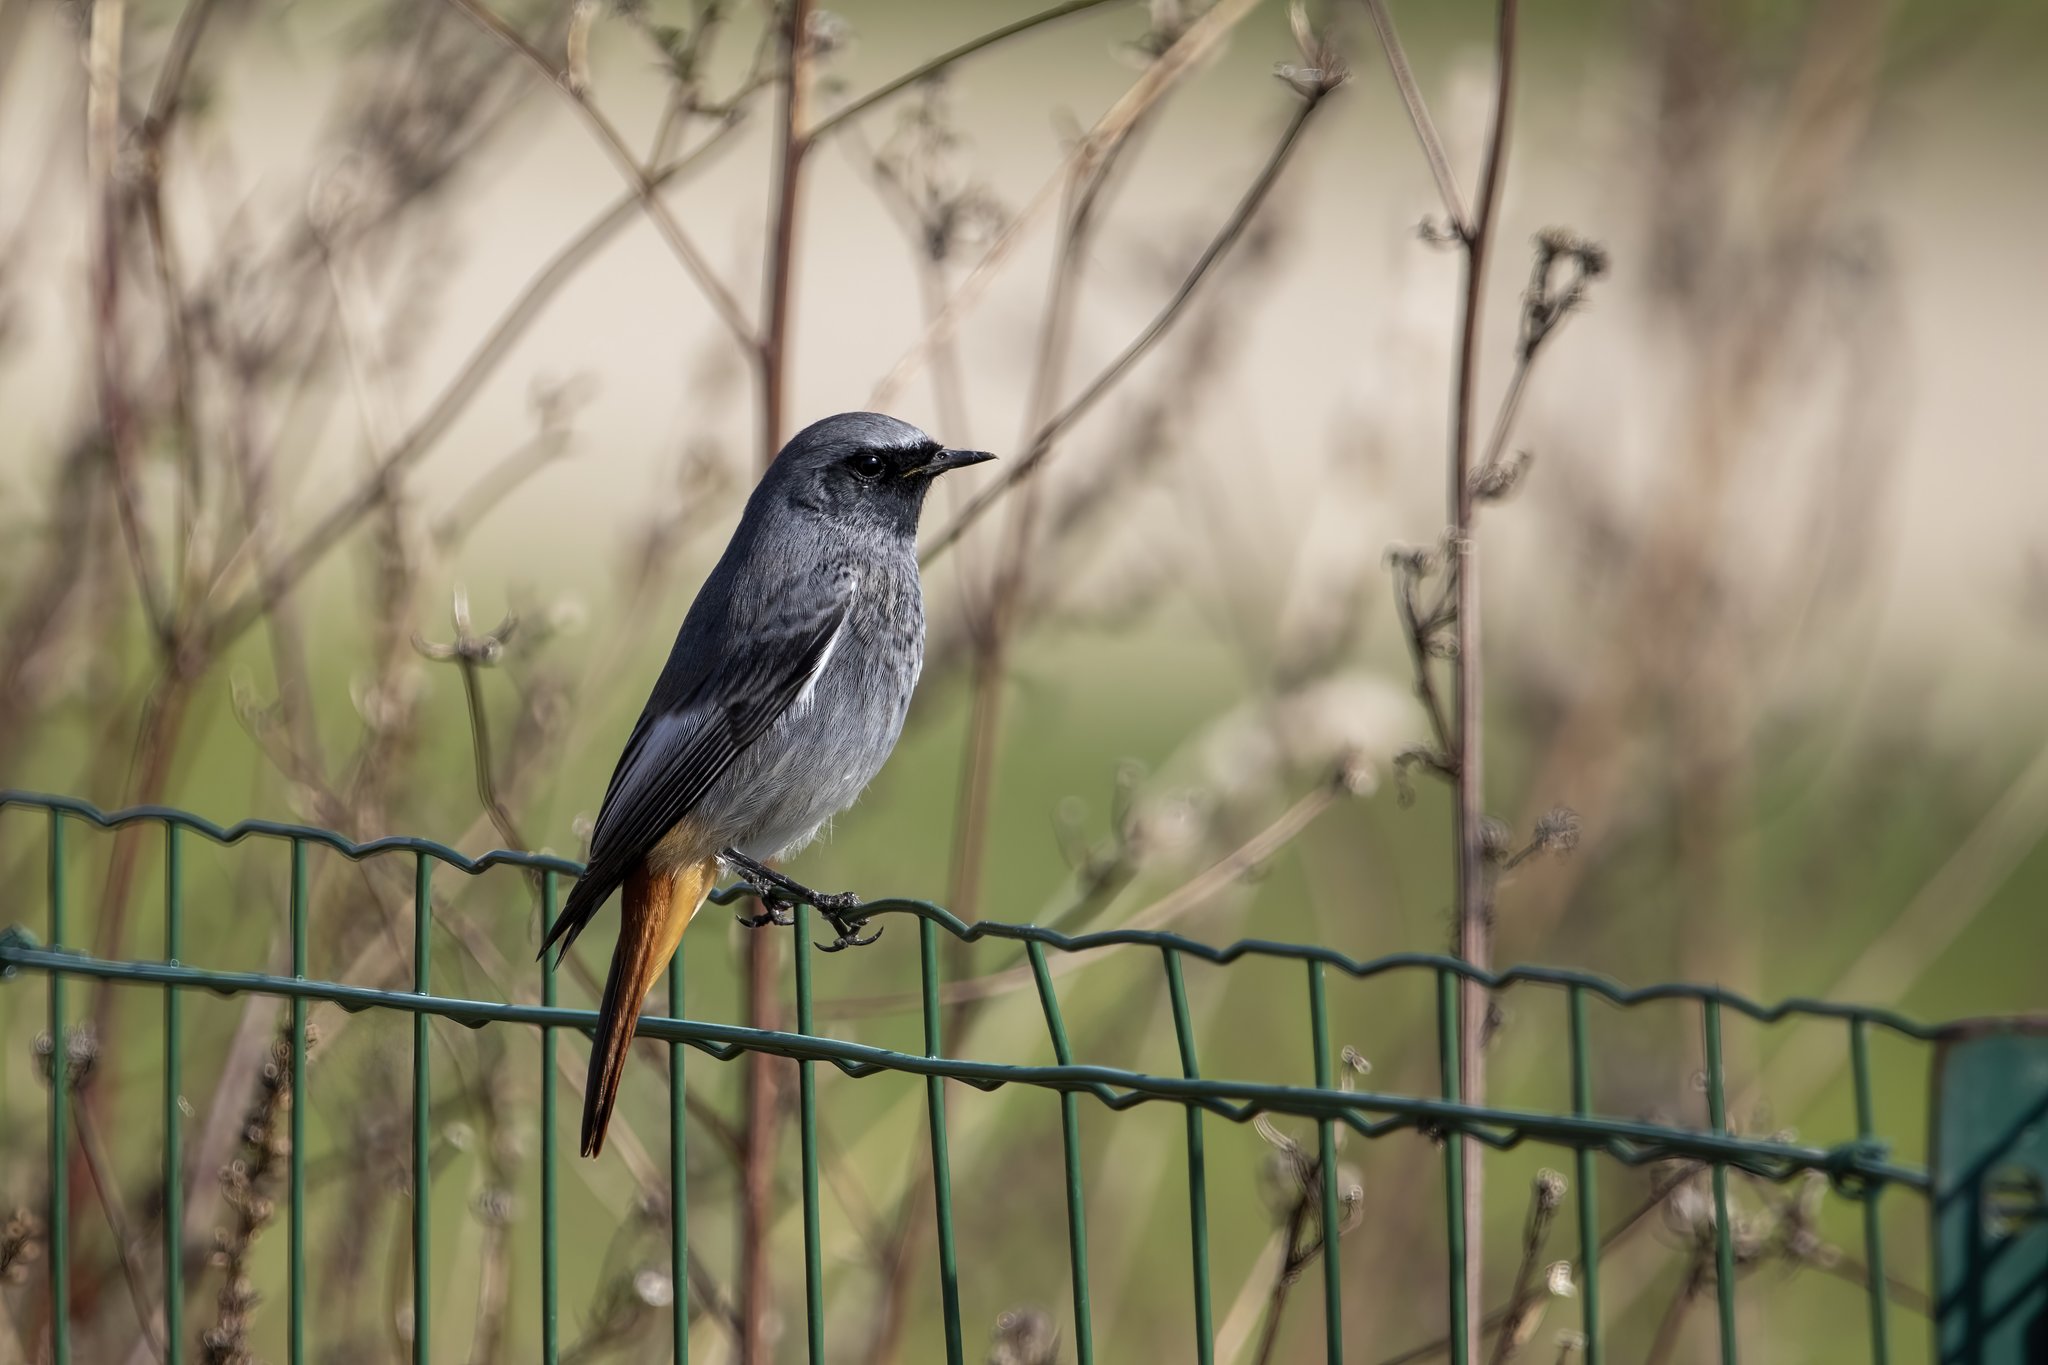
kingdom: Animalia
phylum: Chordata
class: Aves
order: Passeriformes
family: Muscicapidae
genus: Phoenicurus
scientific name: Phoenicurus ochruros
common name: Black redstart
